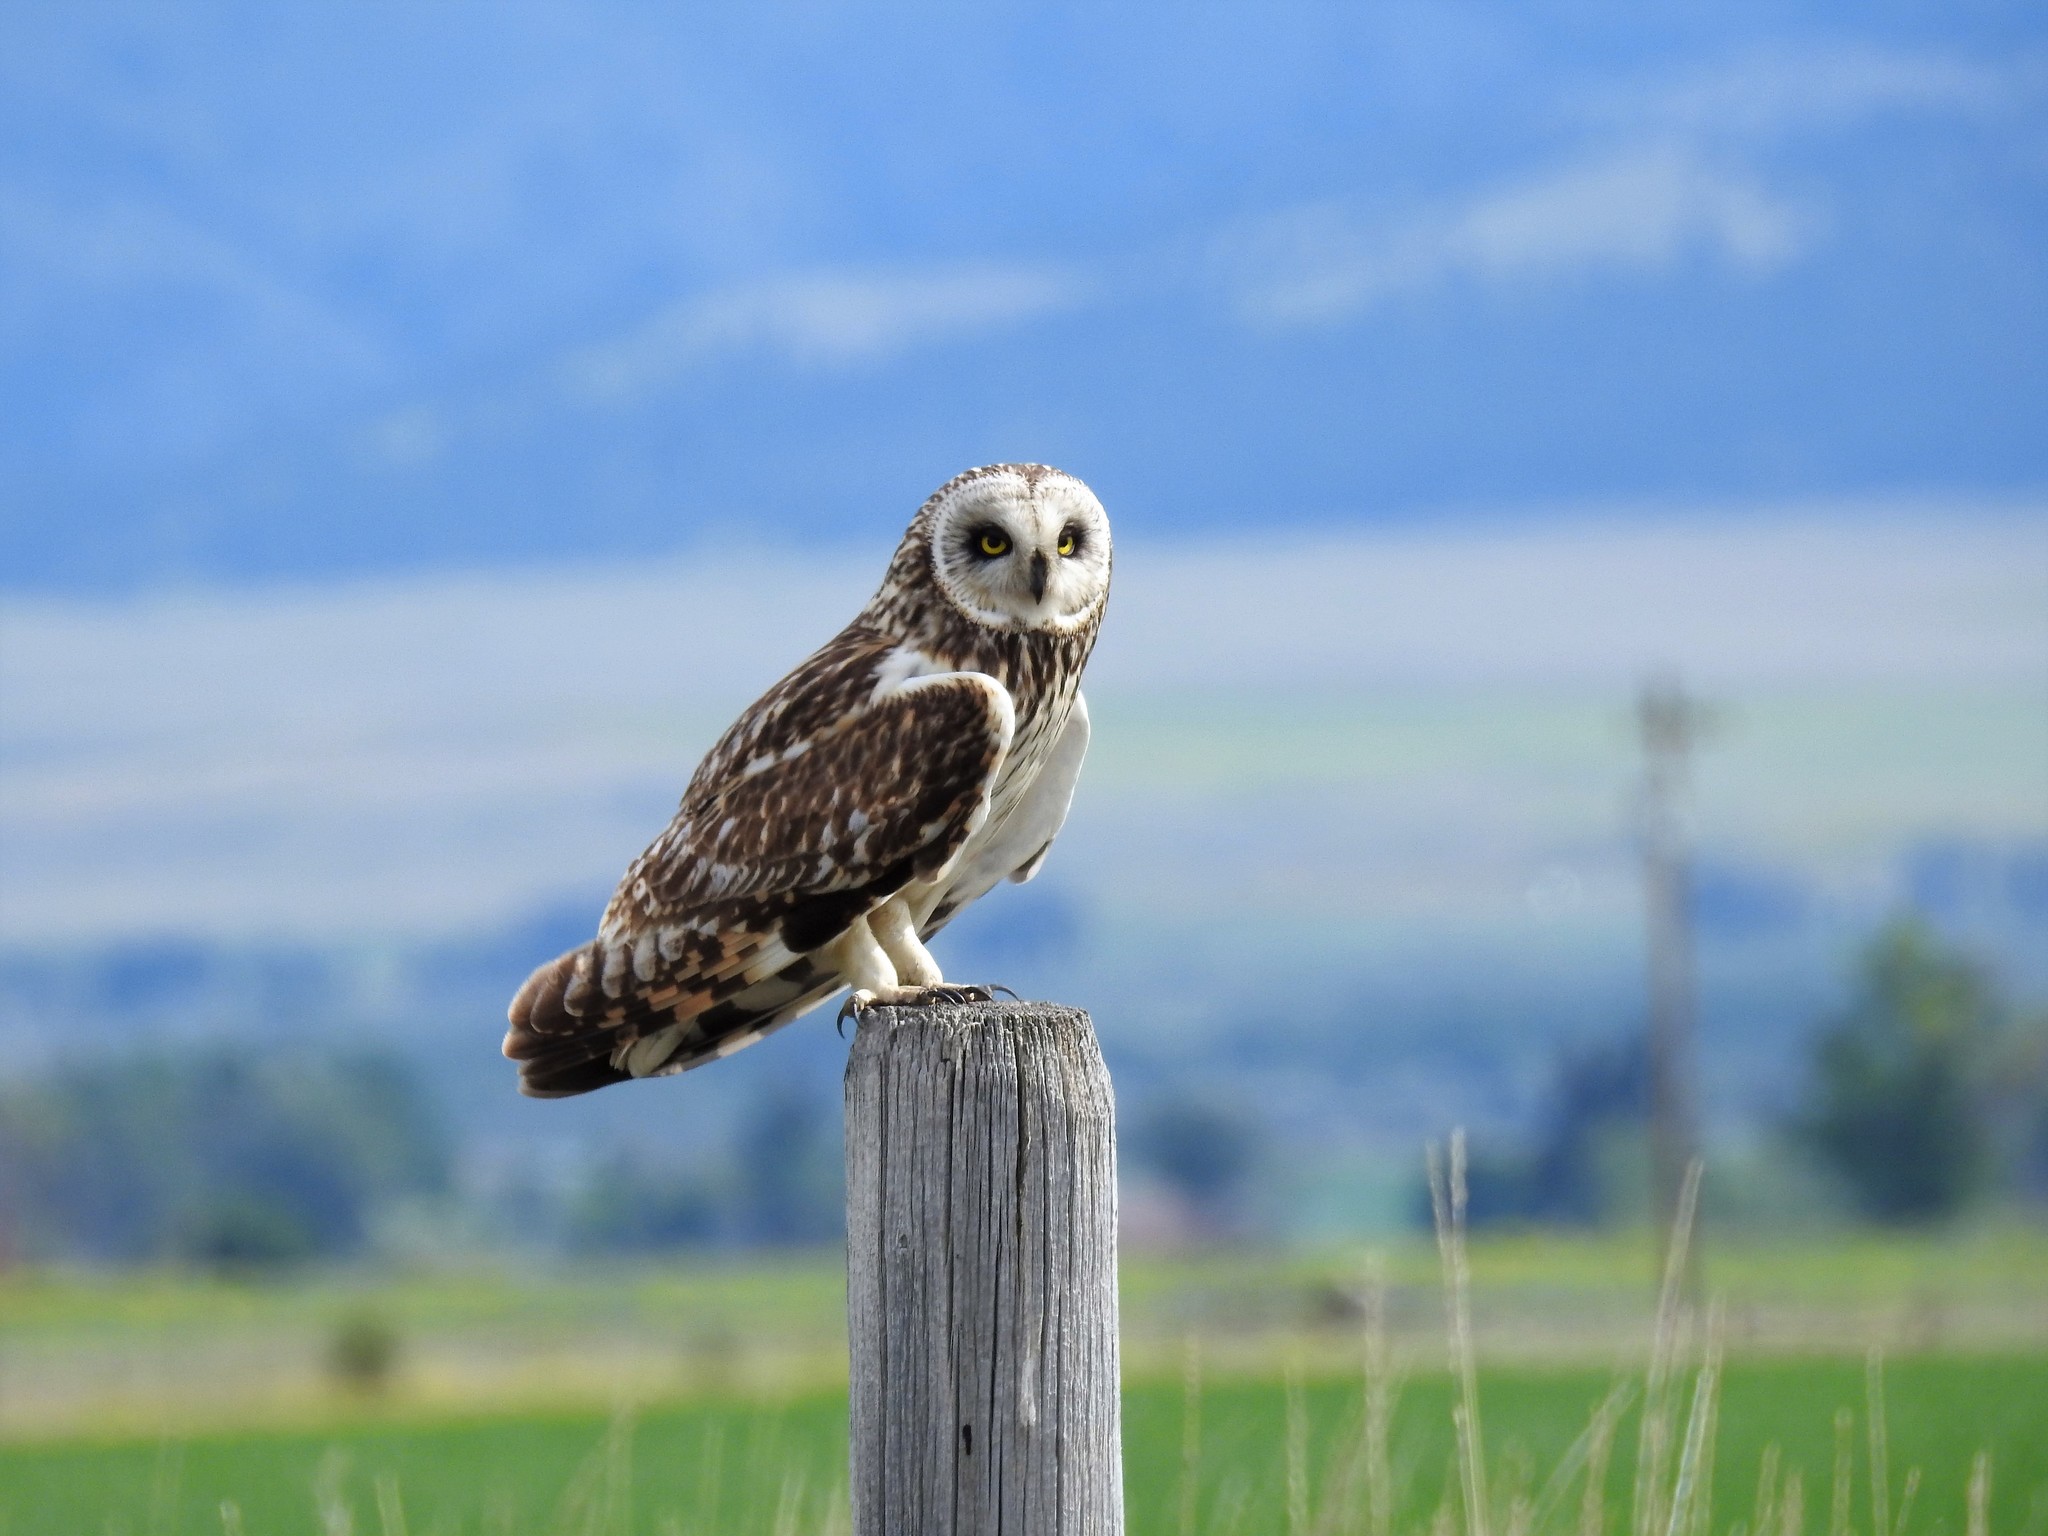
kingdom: Animalia
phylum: Chordata
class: Aves
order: Strigiformes
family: Strigidae
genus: Asio
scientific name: Asio flammeus
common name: Short-eared owl
